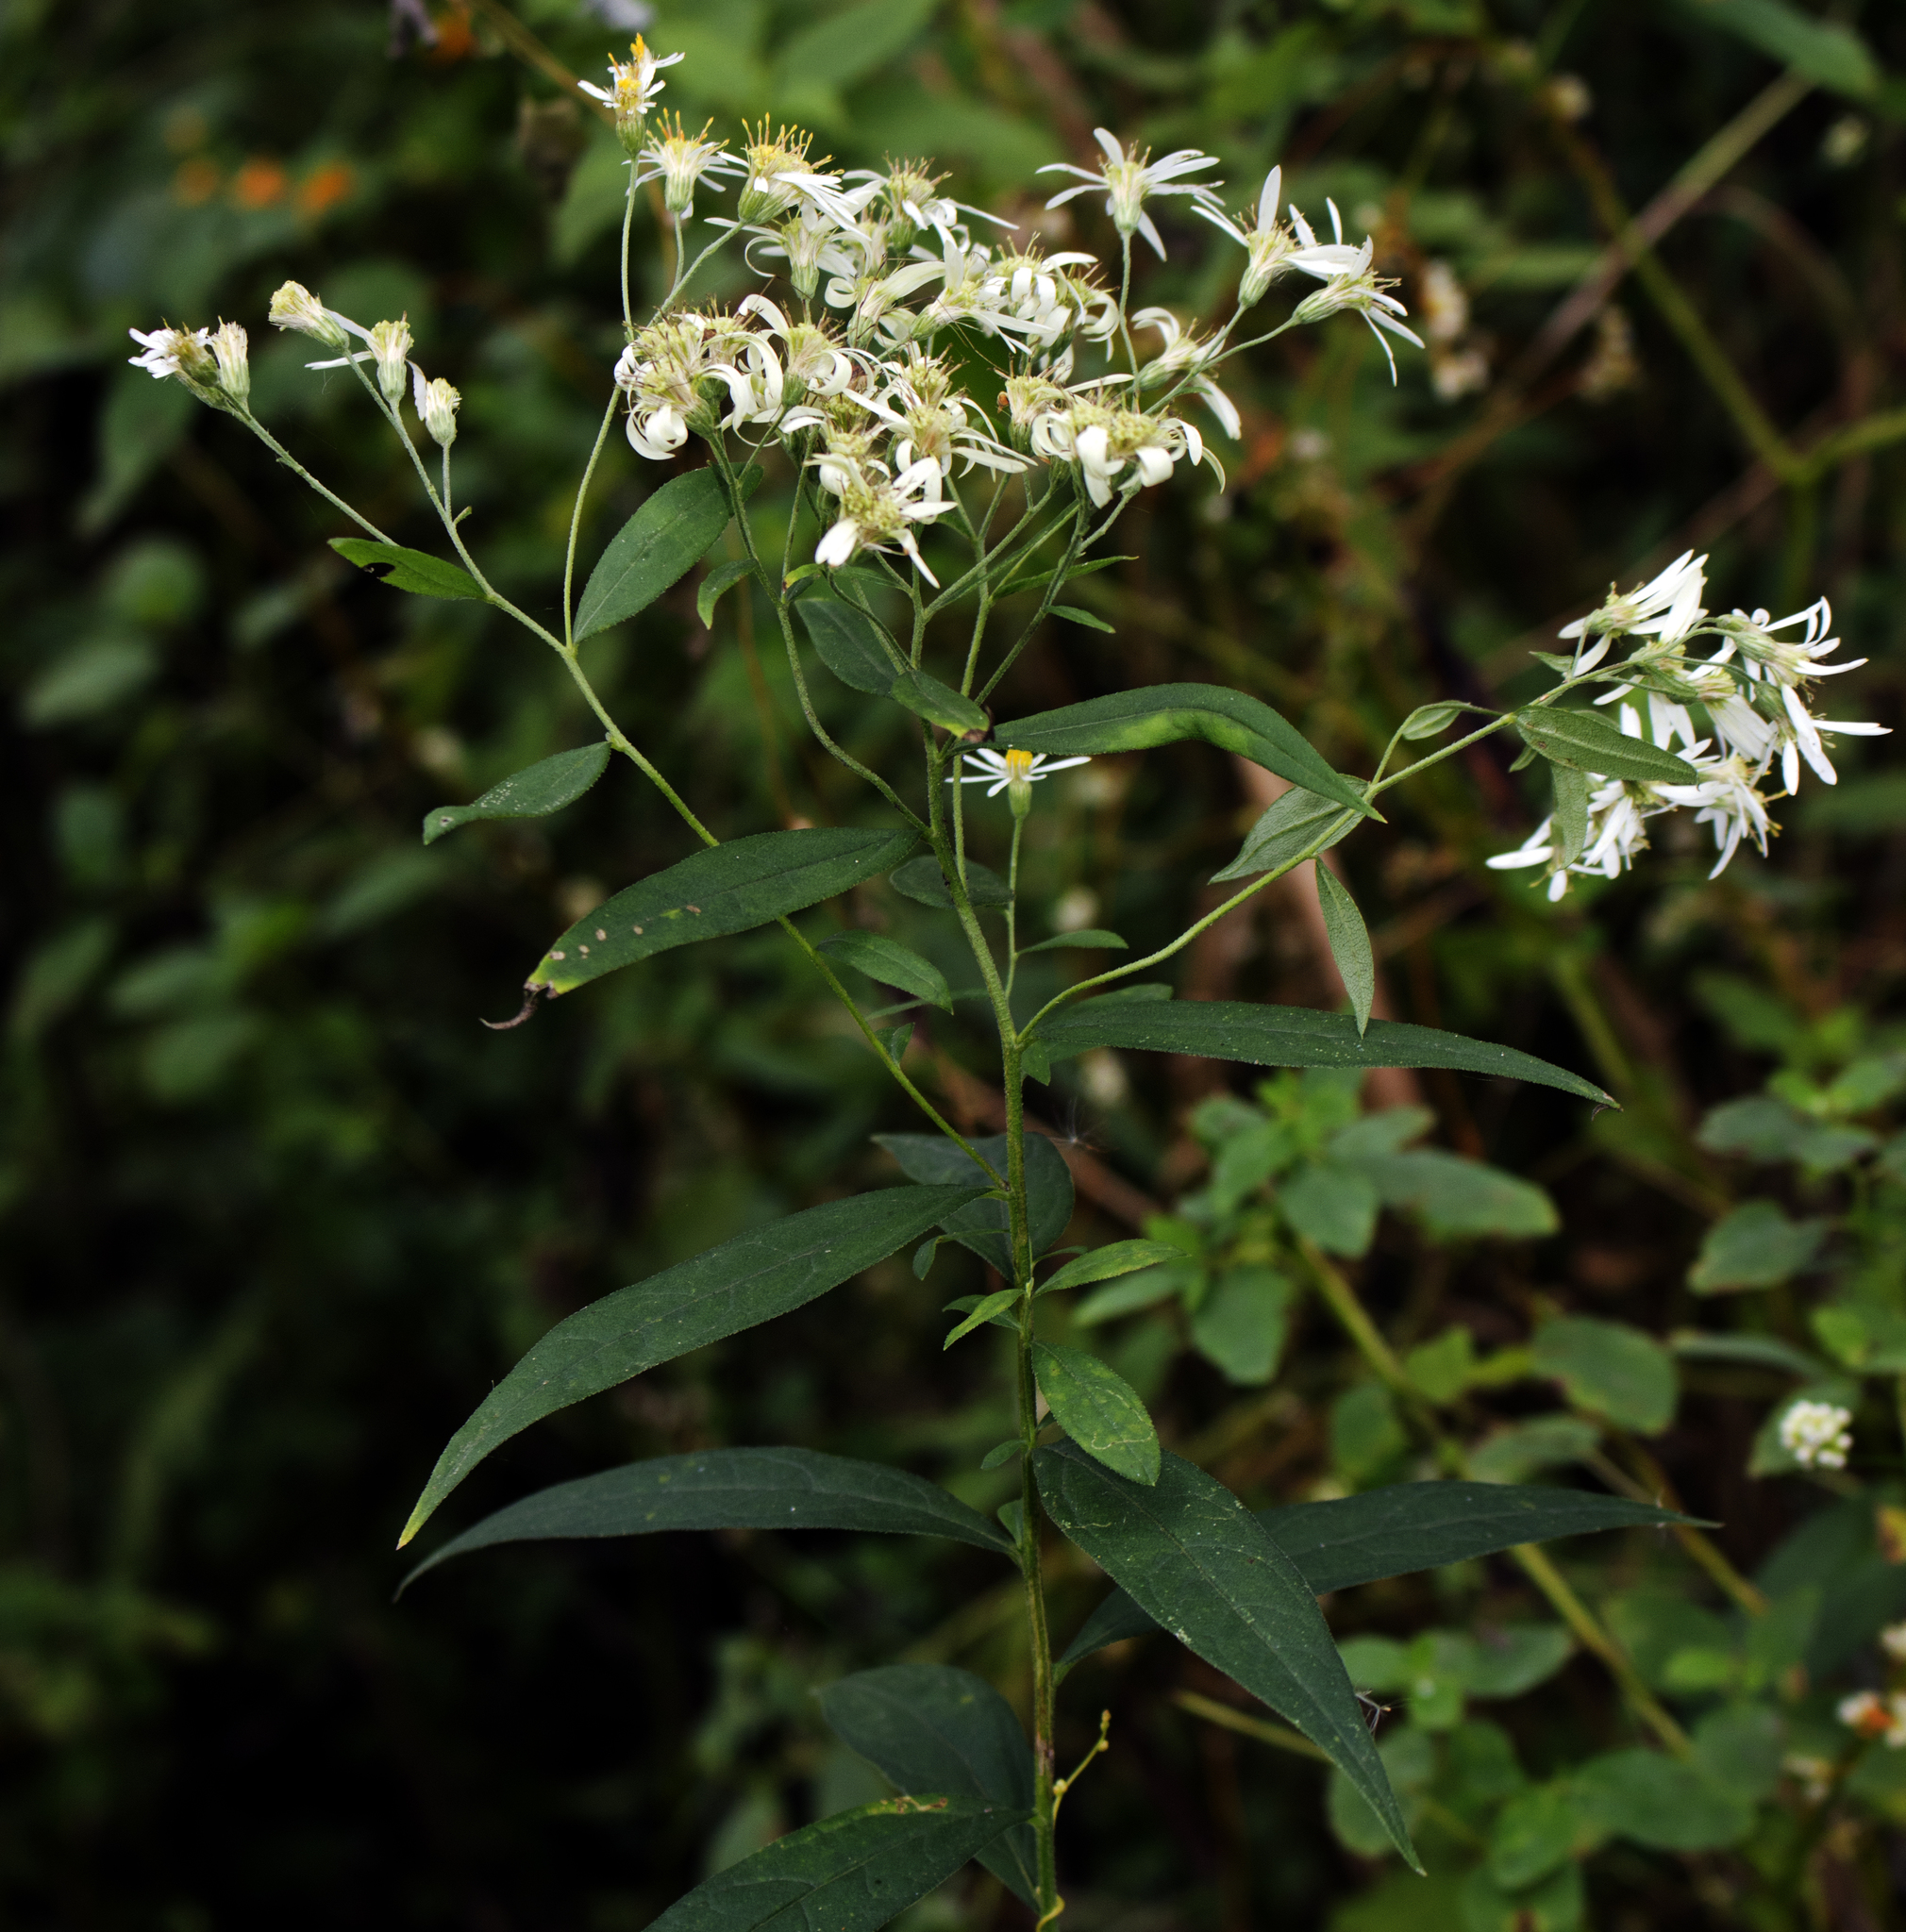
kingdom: Plantae
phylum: Tracheophyta
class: Magnoliopsida
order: Asterales
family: Asteraceae
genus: Doellingeria
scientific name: Doellingeria umbellata
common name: Flat-top white aster
